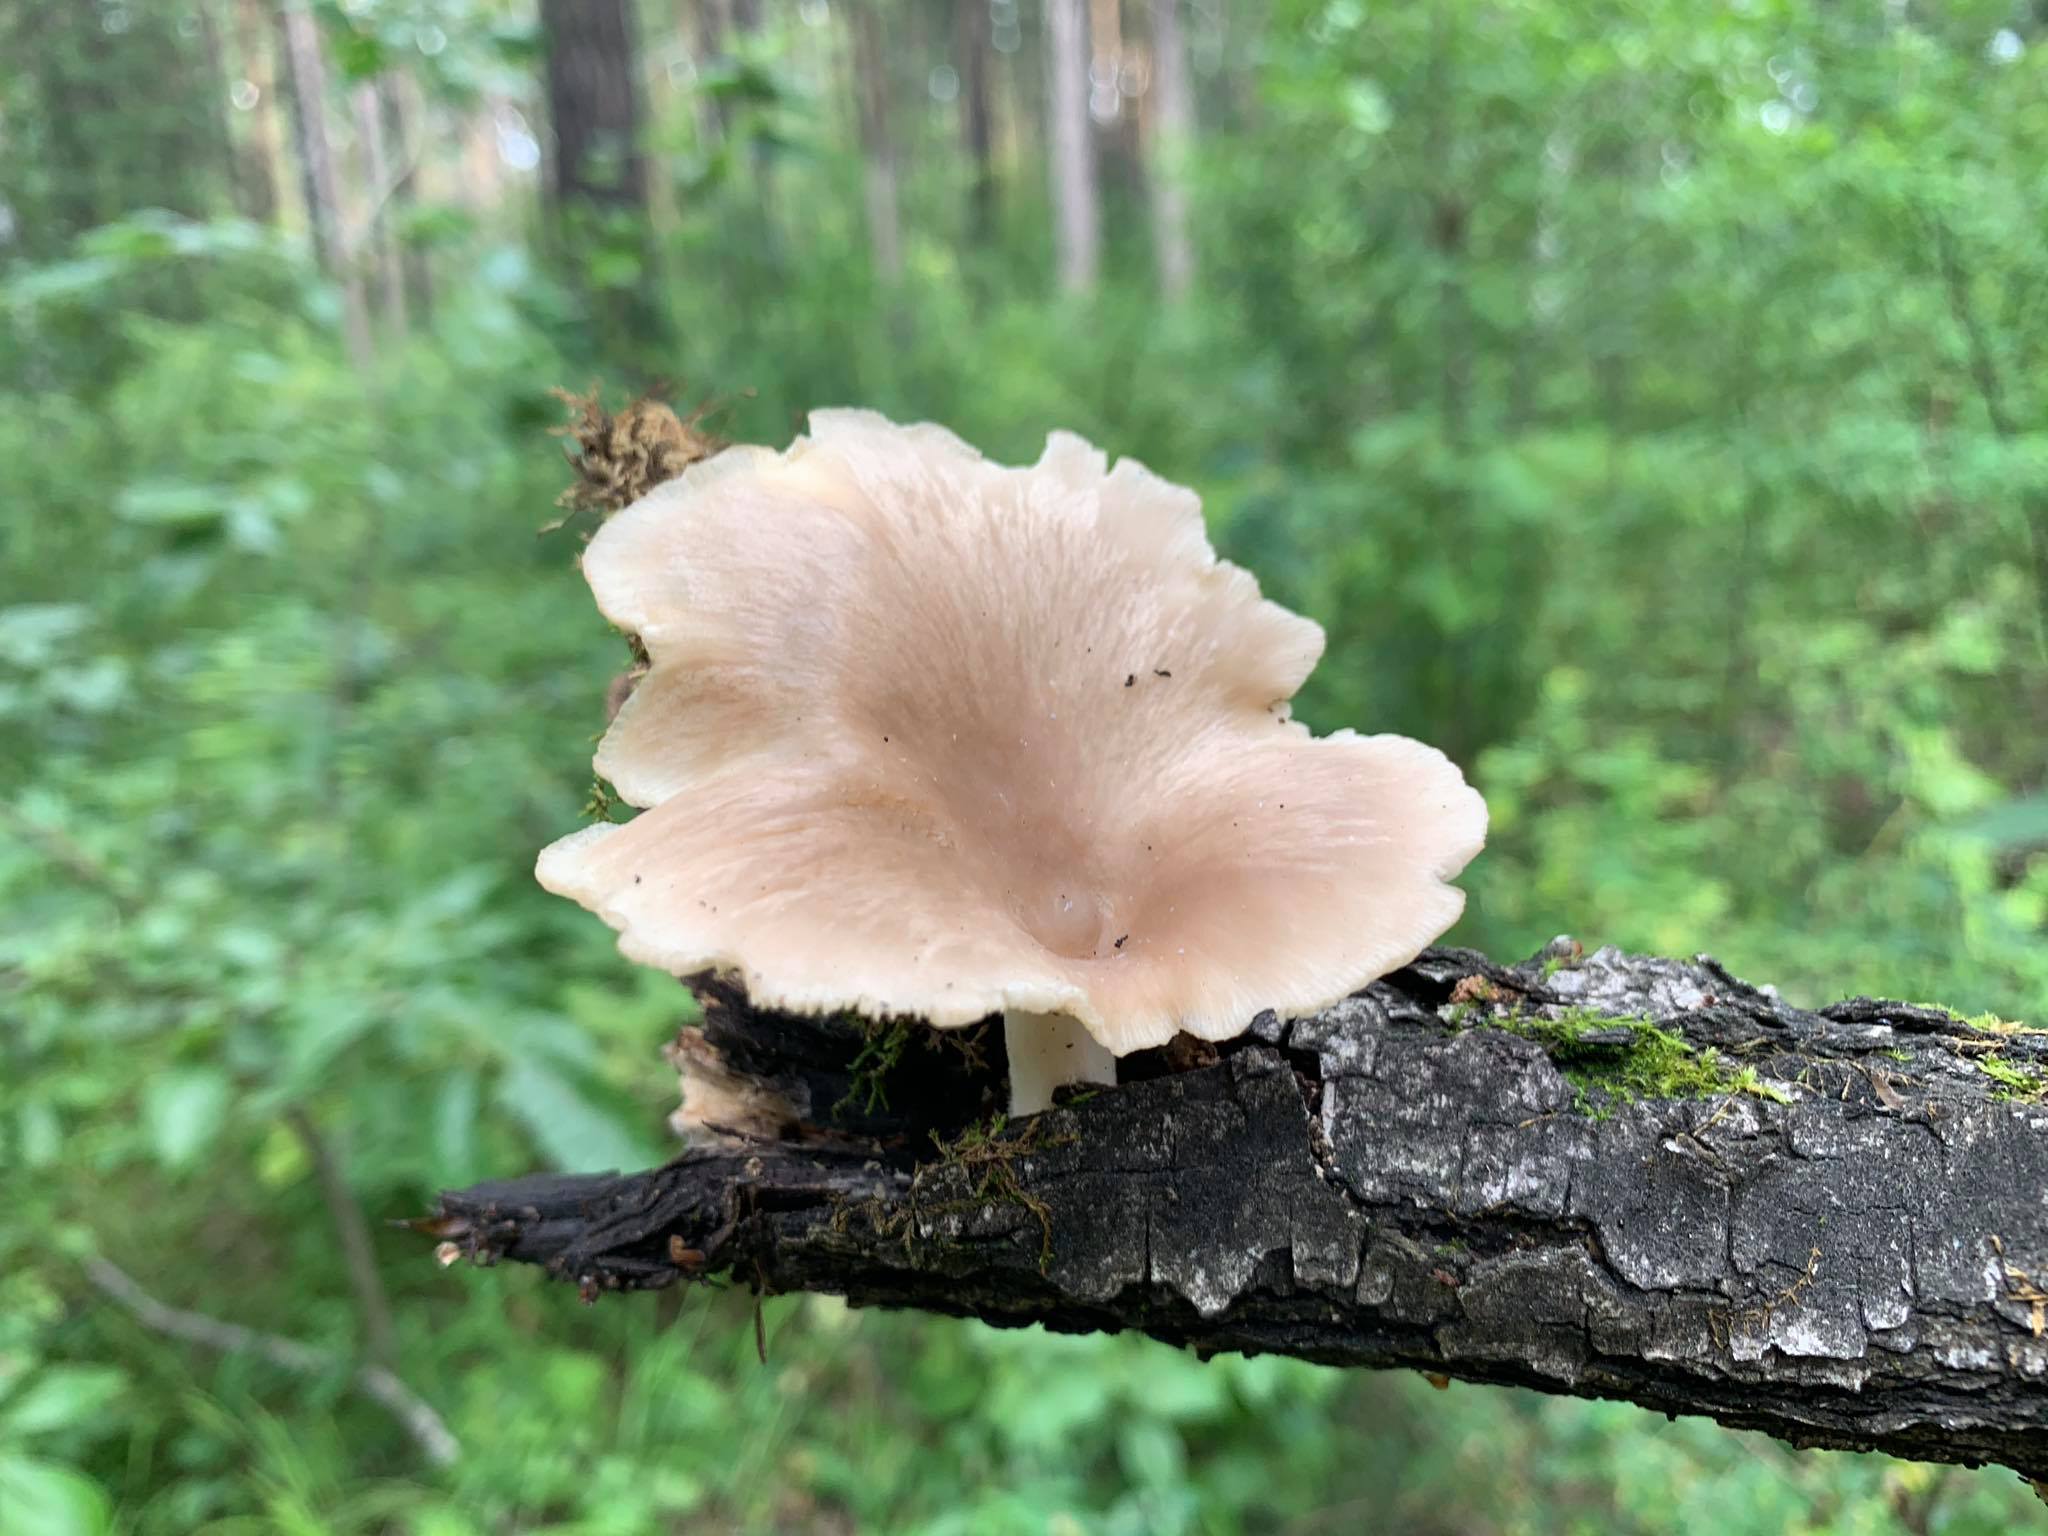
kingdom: Fungi
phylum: Basidiomycota
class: Agaricomycetes
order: Agaricales
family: Pleurotaceae
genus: Pleurotus
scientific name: Pleurotus pulmonarius
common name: Pale oyster
